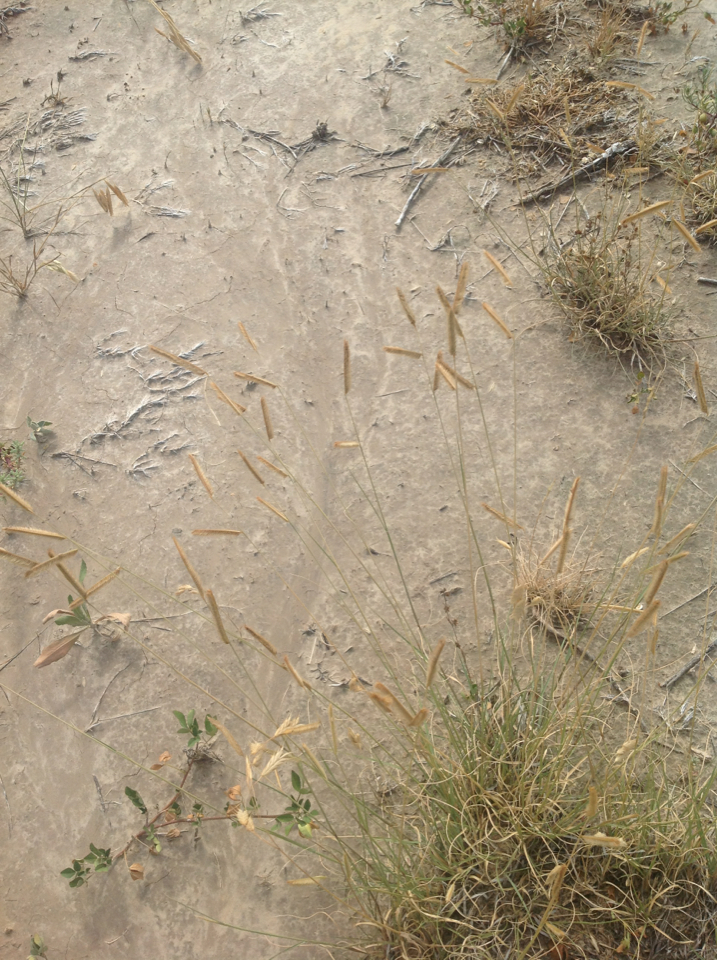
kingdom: Plantae
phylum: Tracheophyta
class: Liliopsida
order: Poales
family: Poaceae
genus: Bouteloua
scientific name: Bouteloua gracilis
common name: Blue grama
